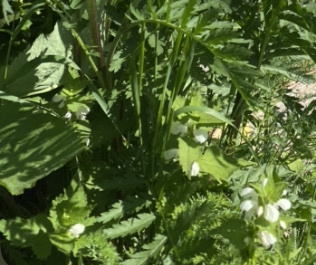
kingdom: Plantae
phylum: Tracheophyta
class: Magnoliopsida
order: Lamiales
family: Lamiaceae
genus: Lamium
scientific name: Lamium album
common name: White dead-nettle
